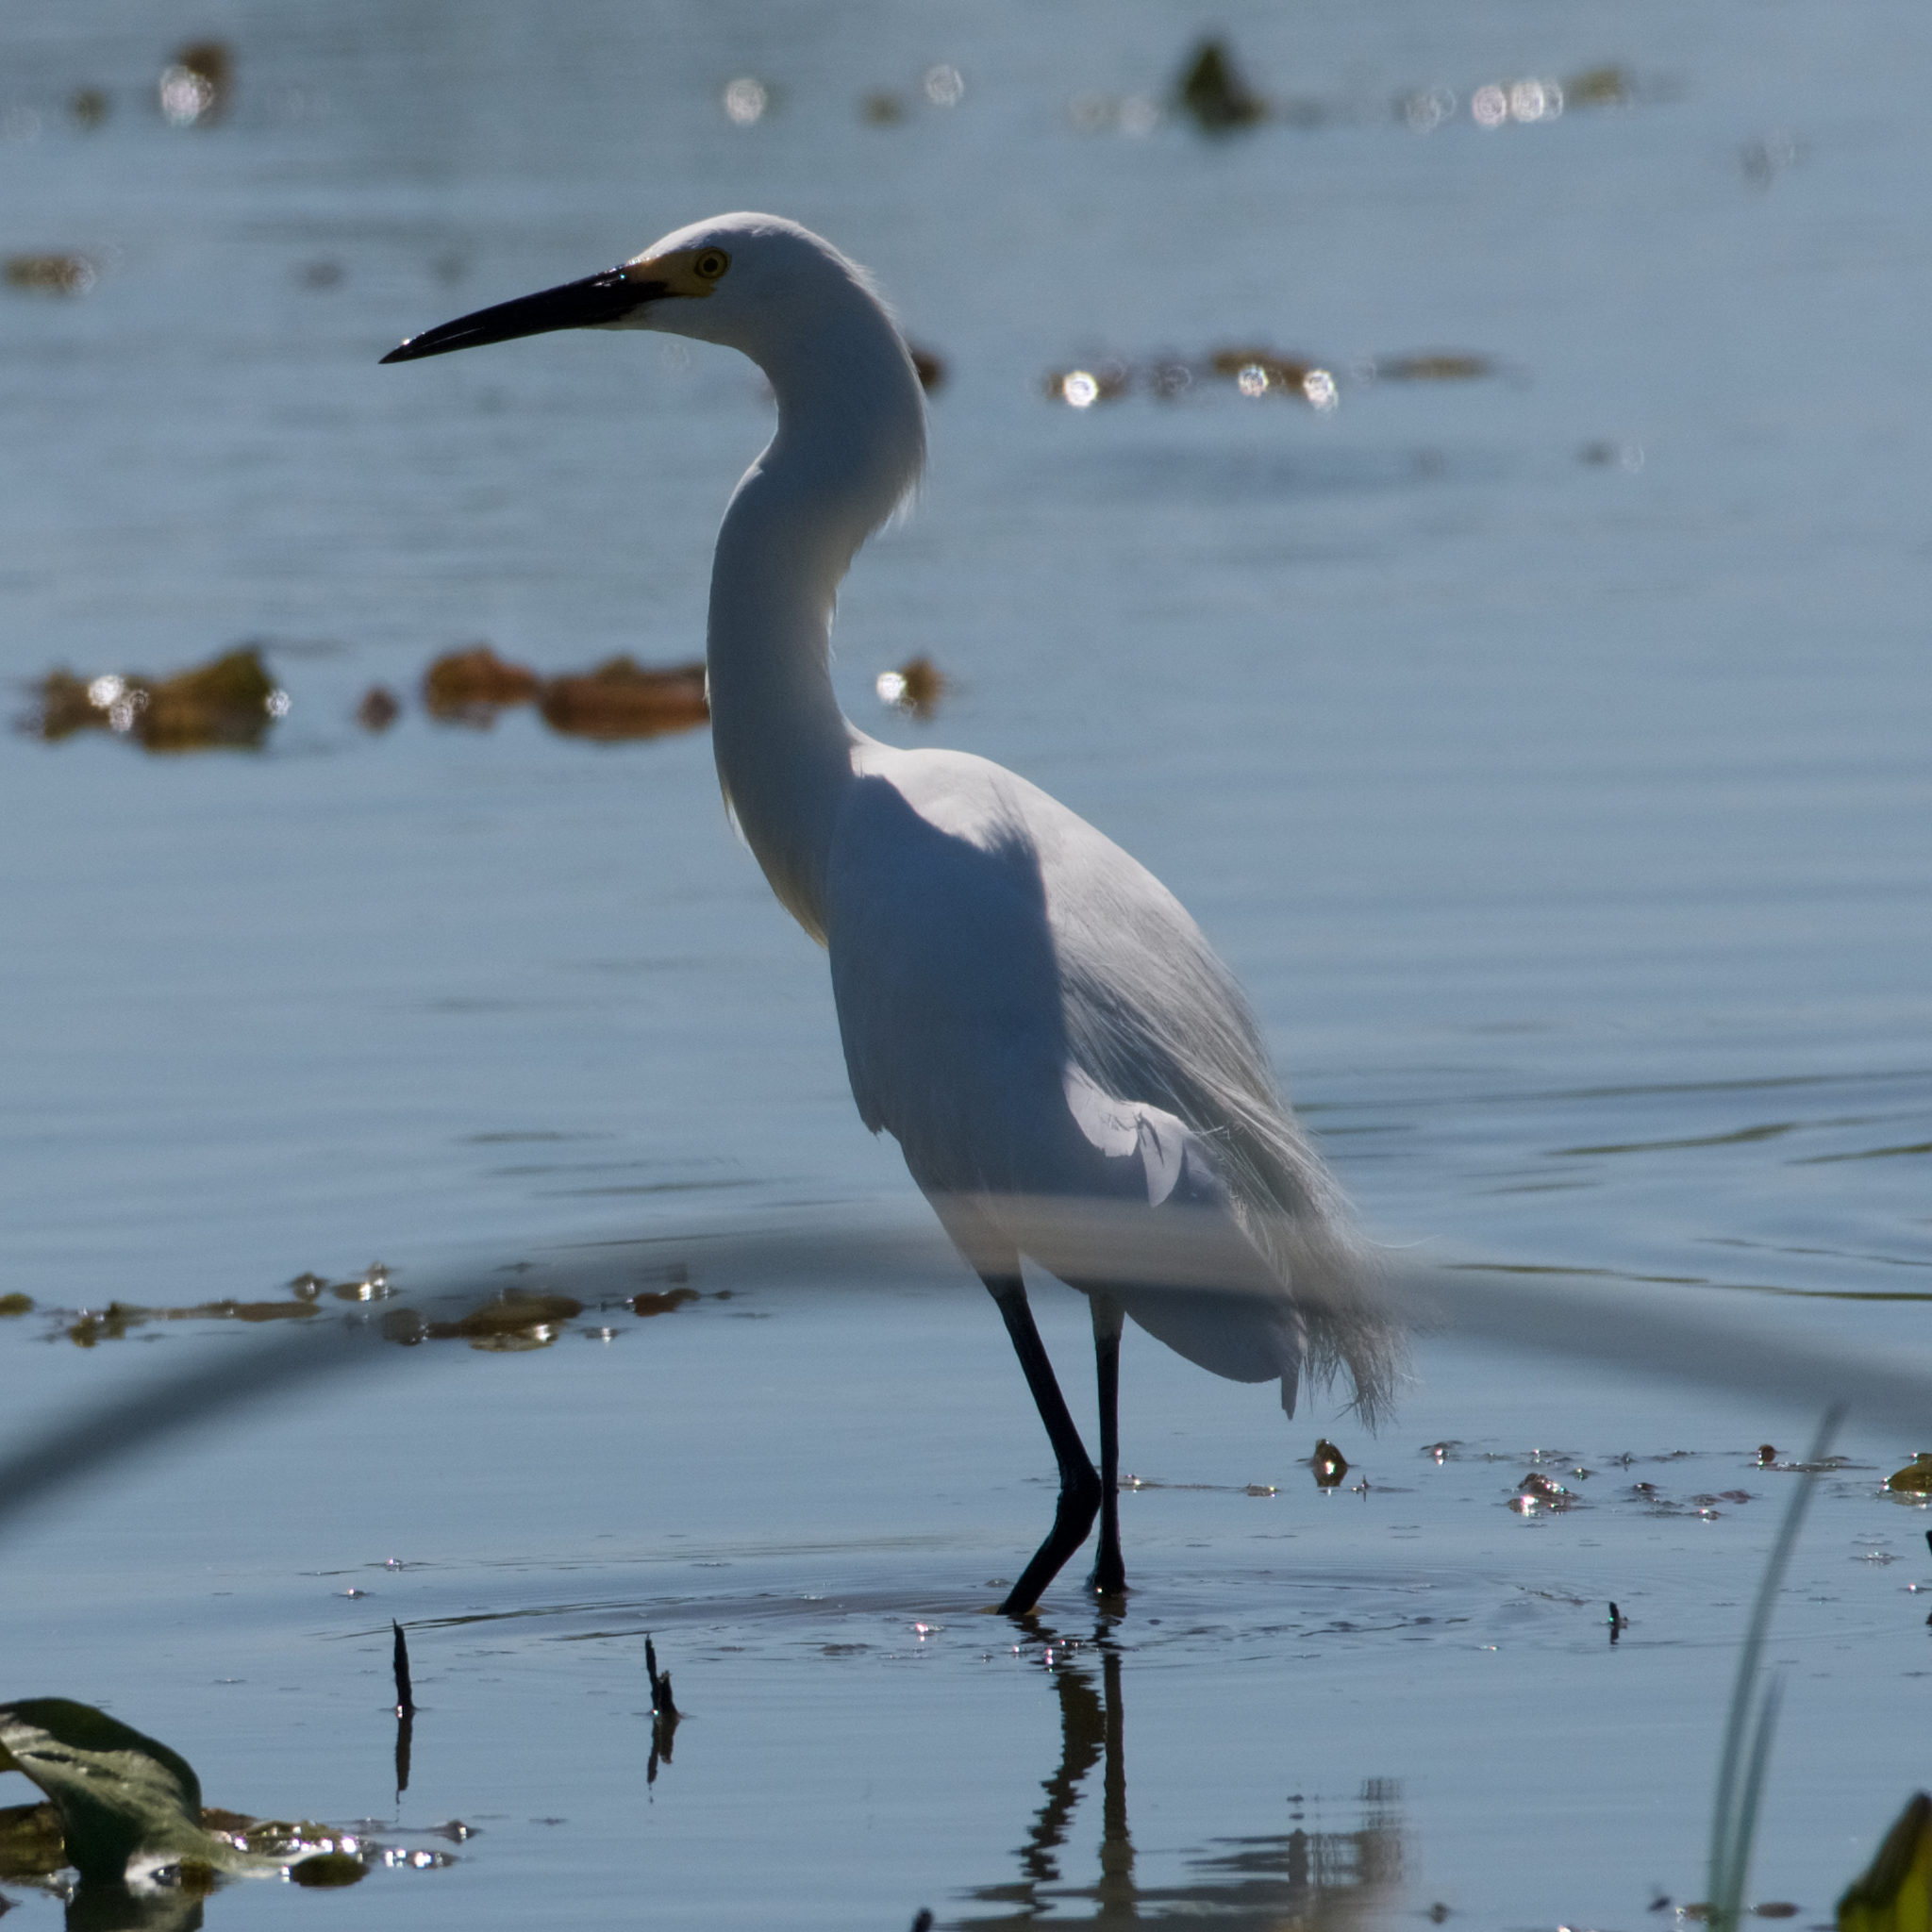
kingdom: Animalia
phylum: Chordata
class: Aves
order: Pelecaniformes
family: Ardeidae
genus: Egretta
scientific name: Egretta thula
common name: Snowy egret
